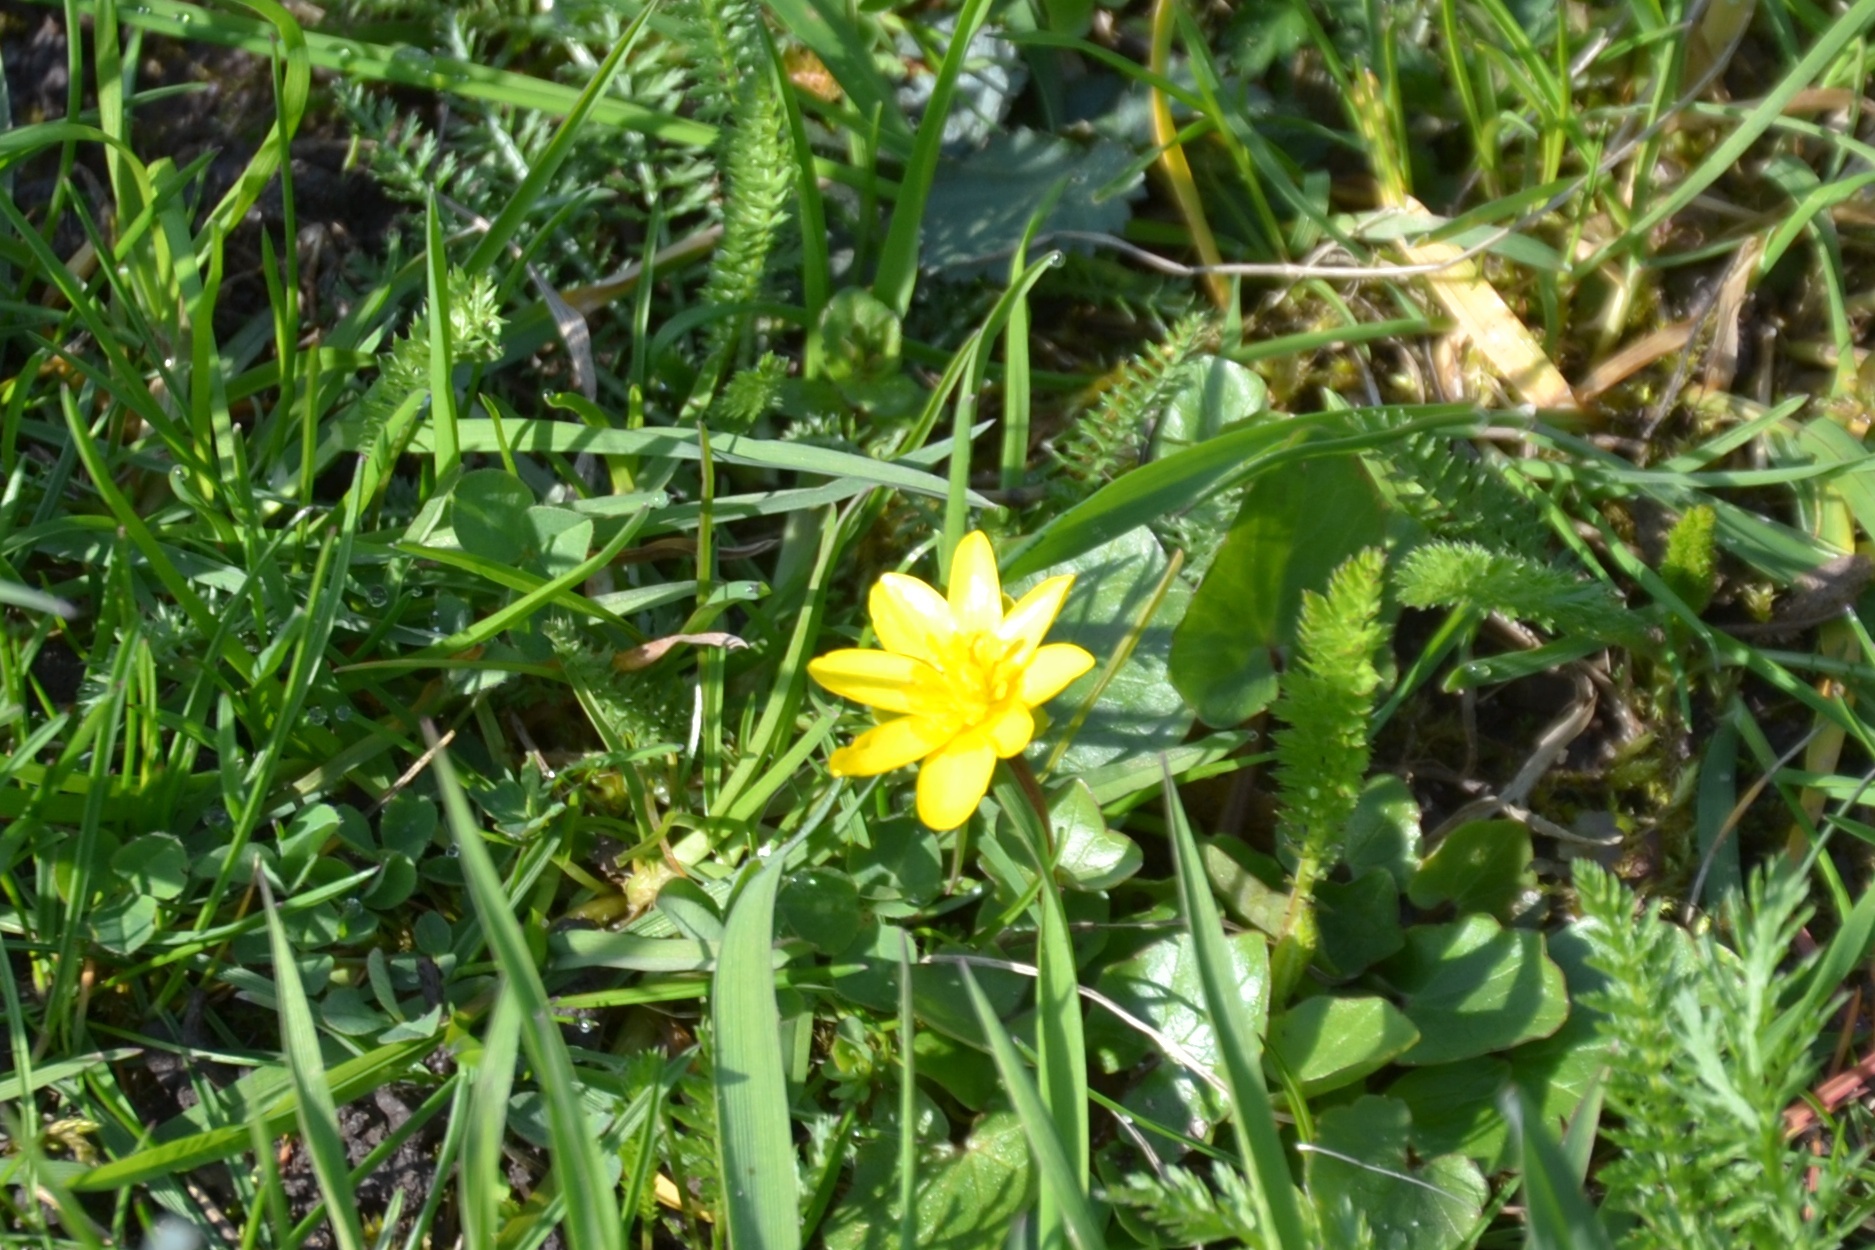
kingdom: Plantae
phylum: Tracheophyta
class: Magnoliopsida
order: Ranunculales
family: Ranunculaceae
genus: Ficaria
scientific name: Ficaria verna
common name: Lesser celandine
